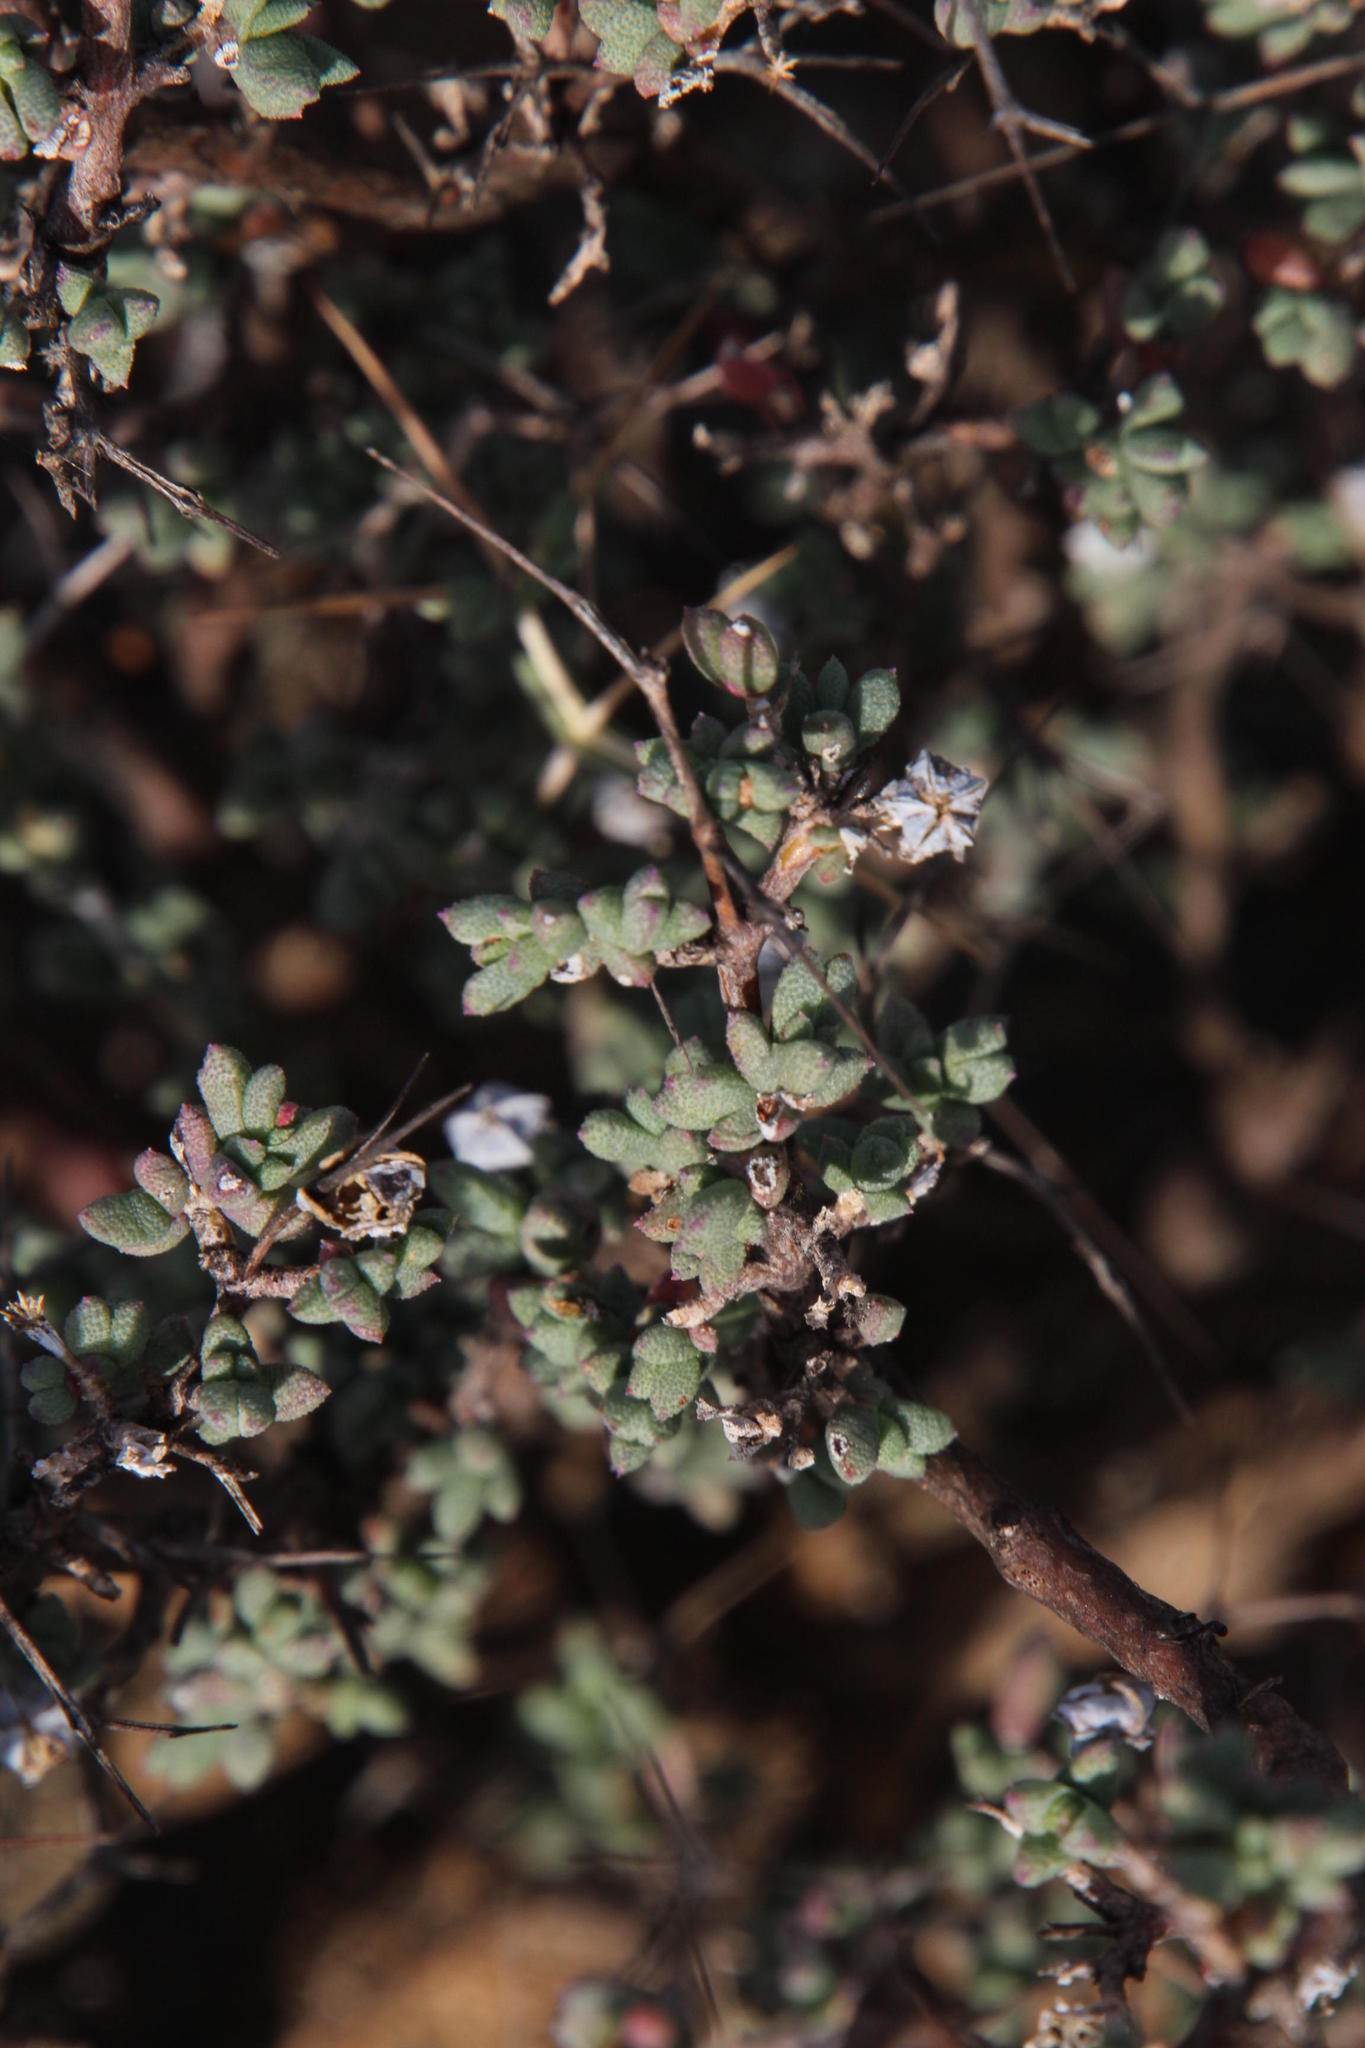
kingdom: Plantae
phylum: Tracheophyta
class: Magnoliopsida
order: Caryophyllales
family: Aizoaceae
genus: Ruschia
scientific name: Ruschia cradockensis
